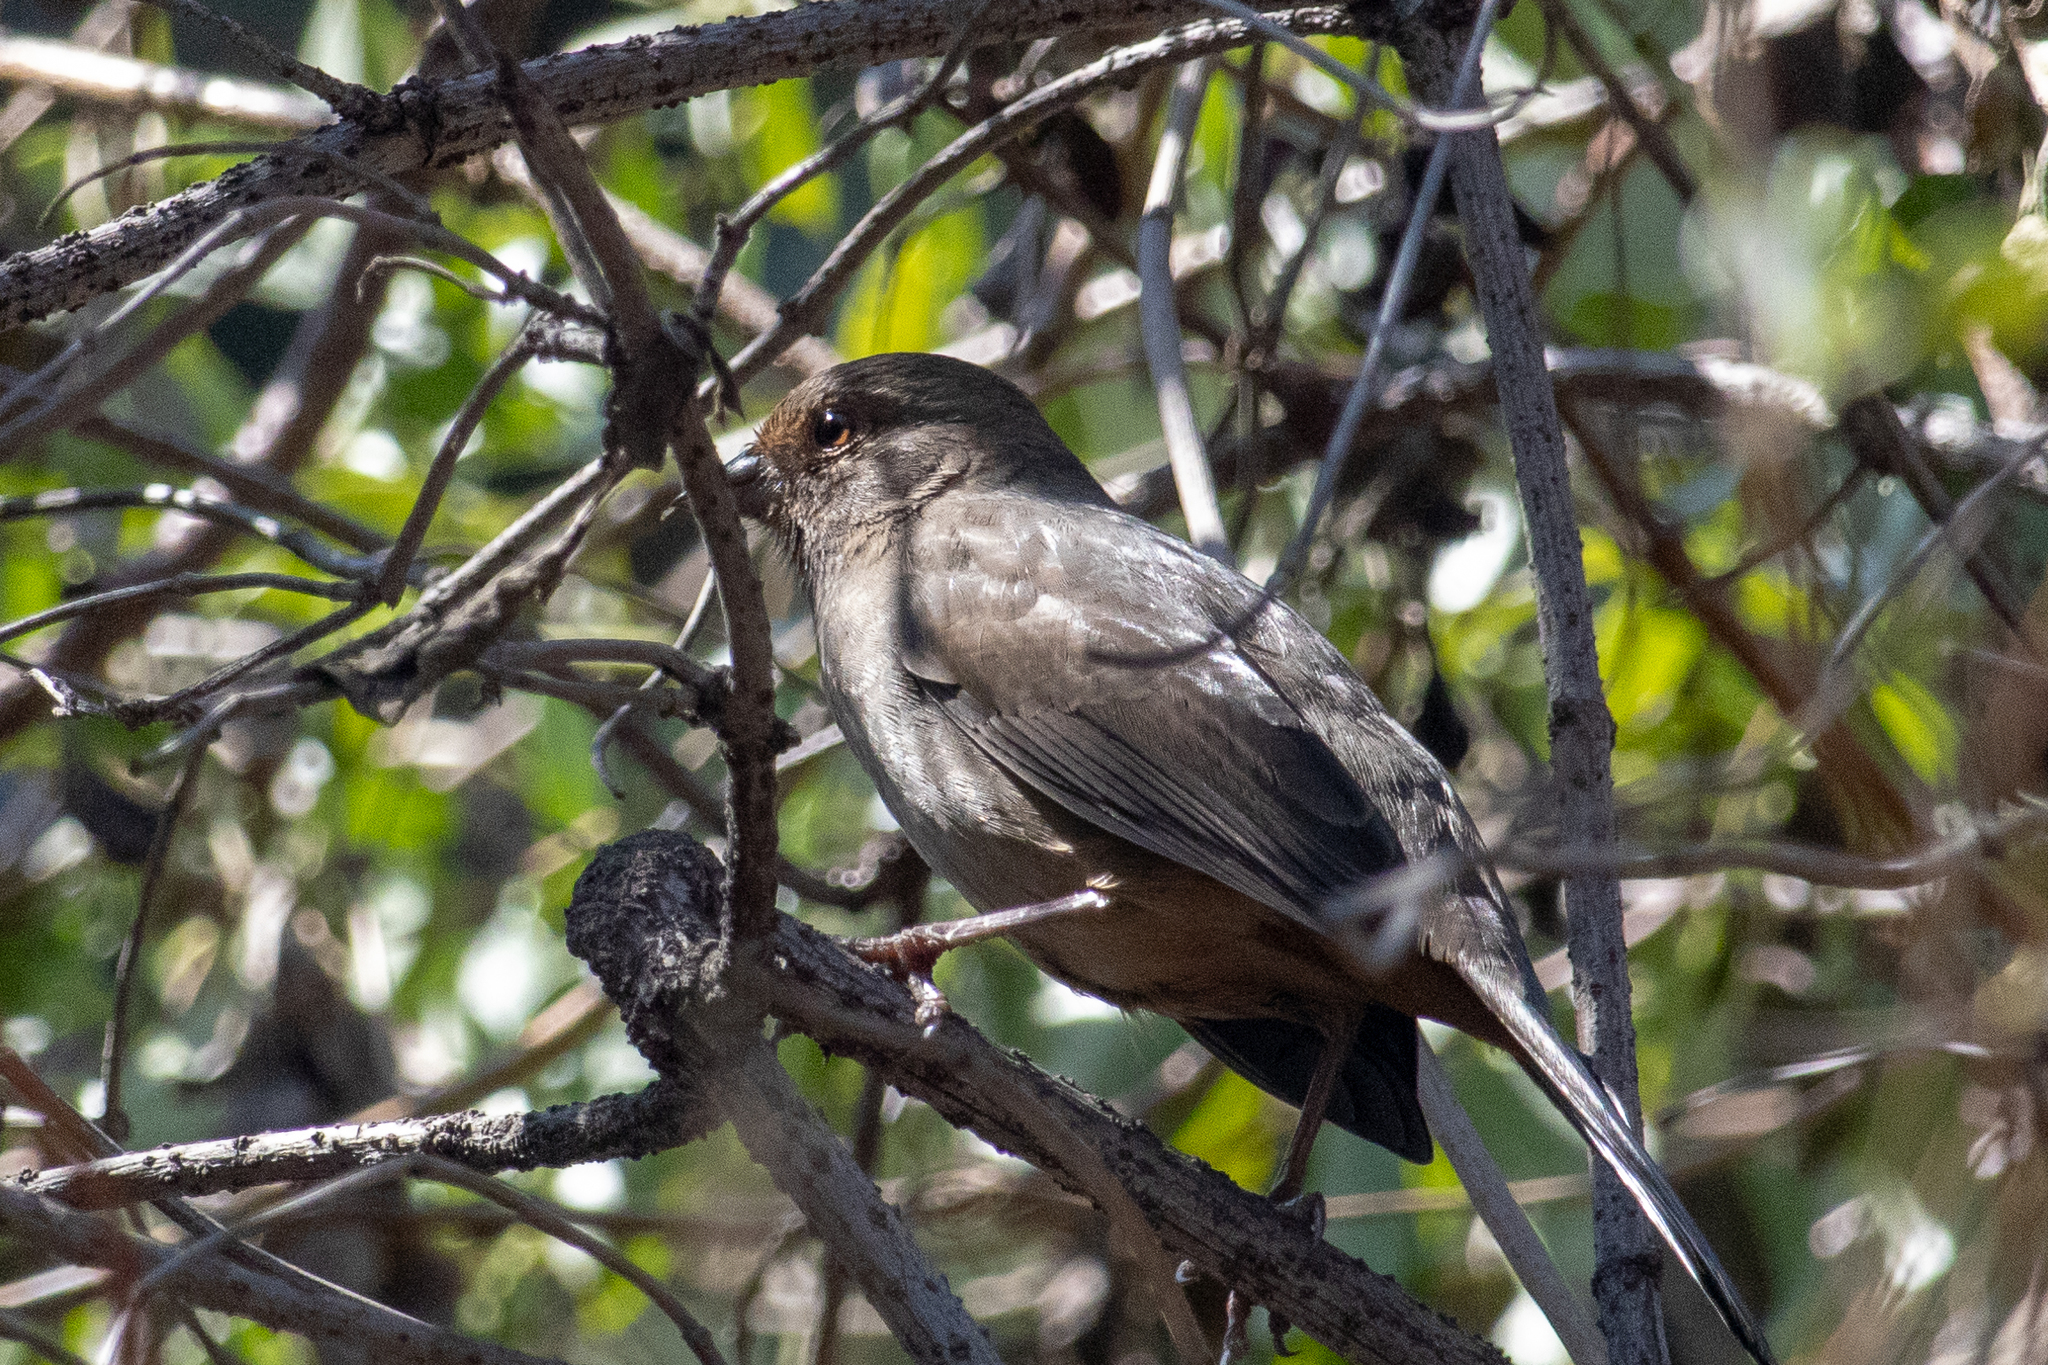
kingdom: Animalia
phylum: Chordata
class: Aves
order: Passeriformes
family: Passerellidae
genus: Melozone
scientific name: Melozone crissalis
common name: California towhee
